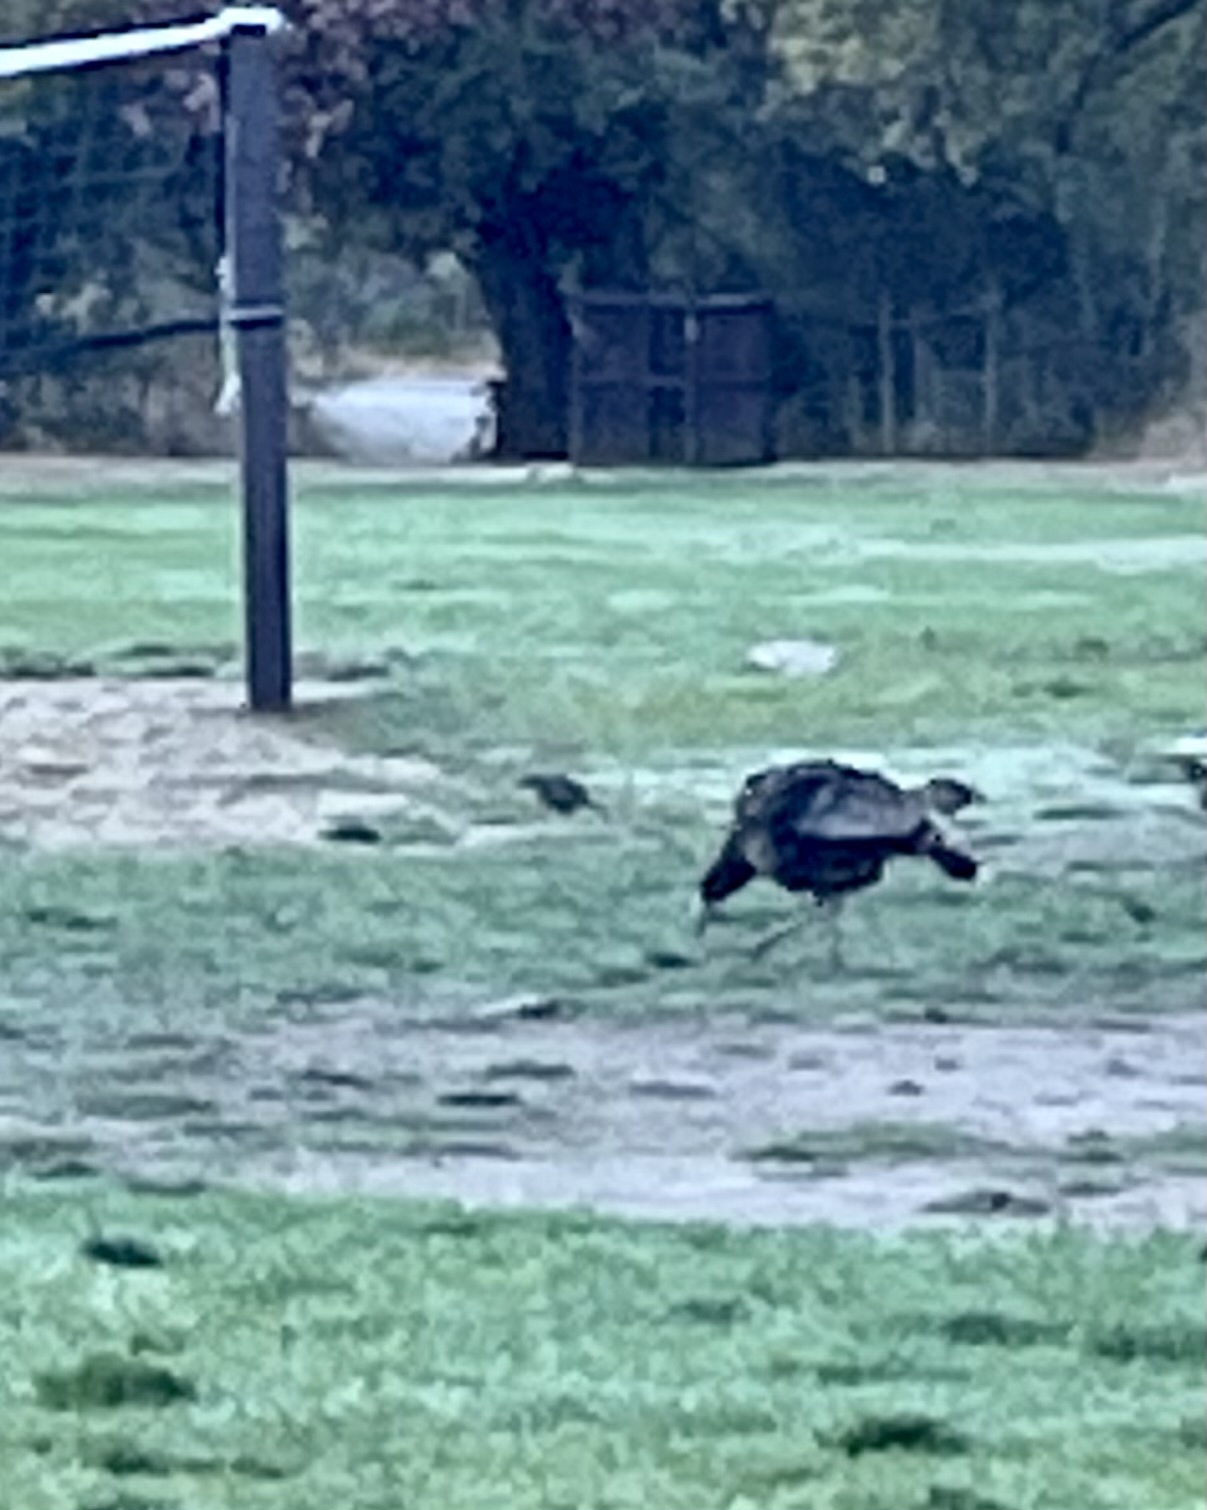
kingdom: Animalia
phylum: Chordata
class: Aves
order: Galliformes
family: Phasianidae
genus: Meleagris
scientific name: Meleagris gallopavo
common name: Wild turkey
